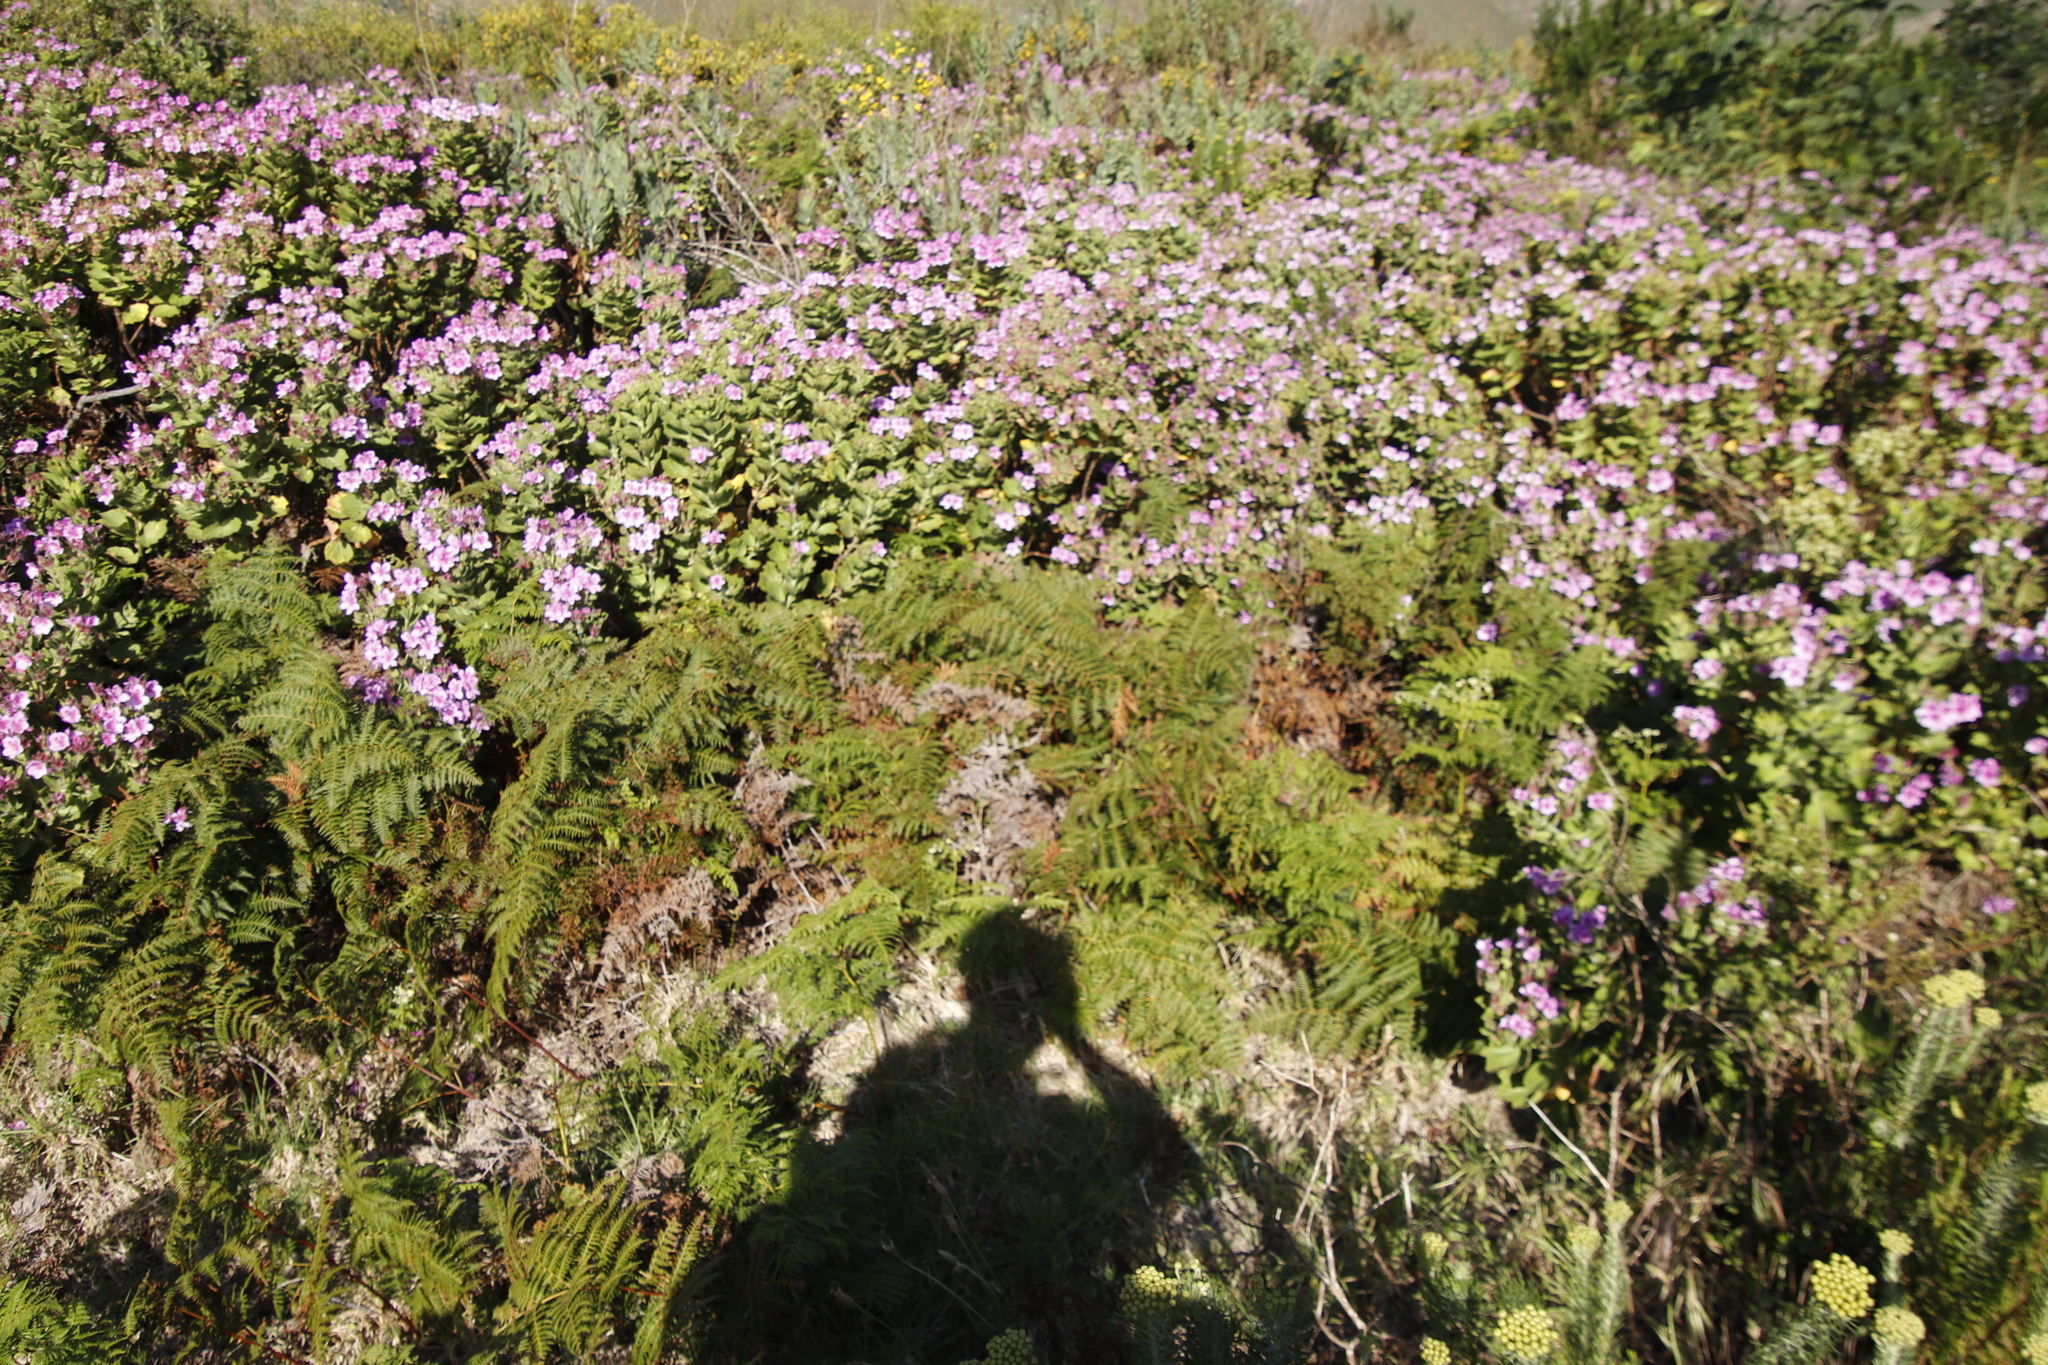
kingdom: Plantae
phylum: Tracheophyta
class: Magnoliopsida
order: Geraniales
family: Geraniaceae
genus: Pelargonium
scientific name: Pelargonium cucullatum
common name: Tree pelargonium
